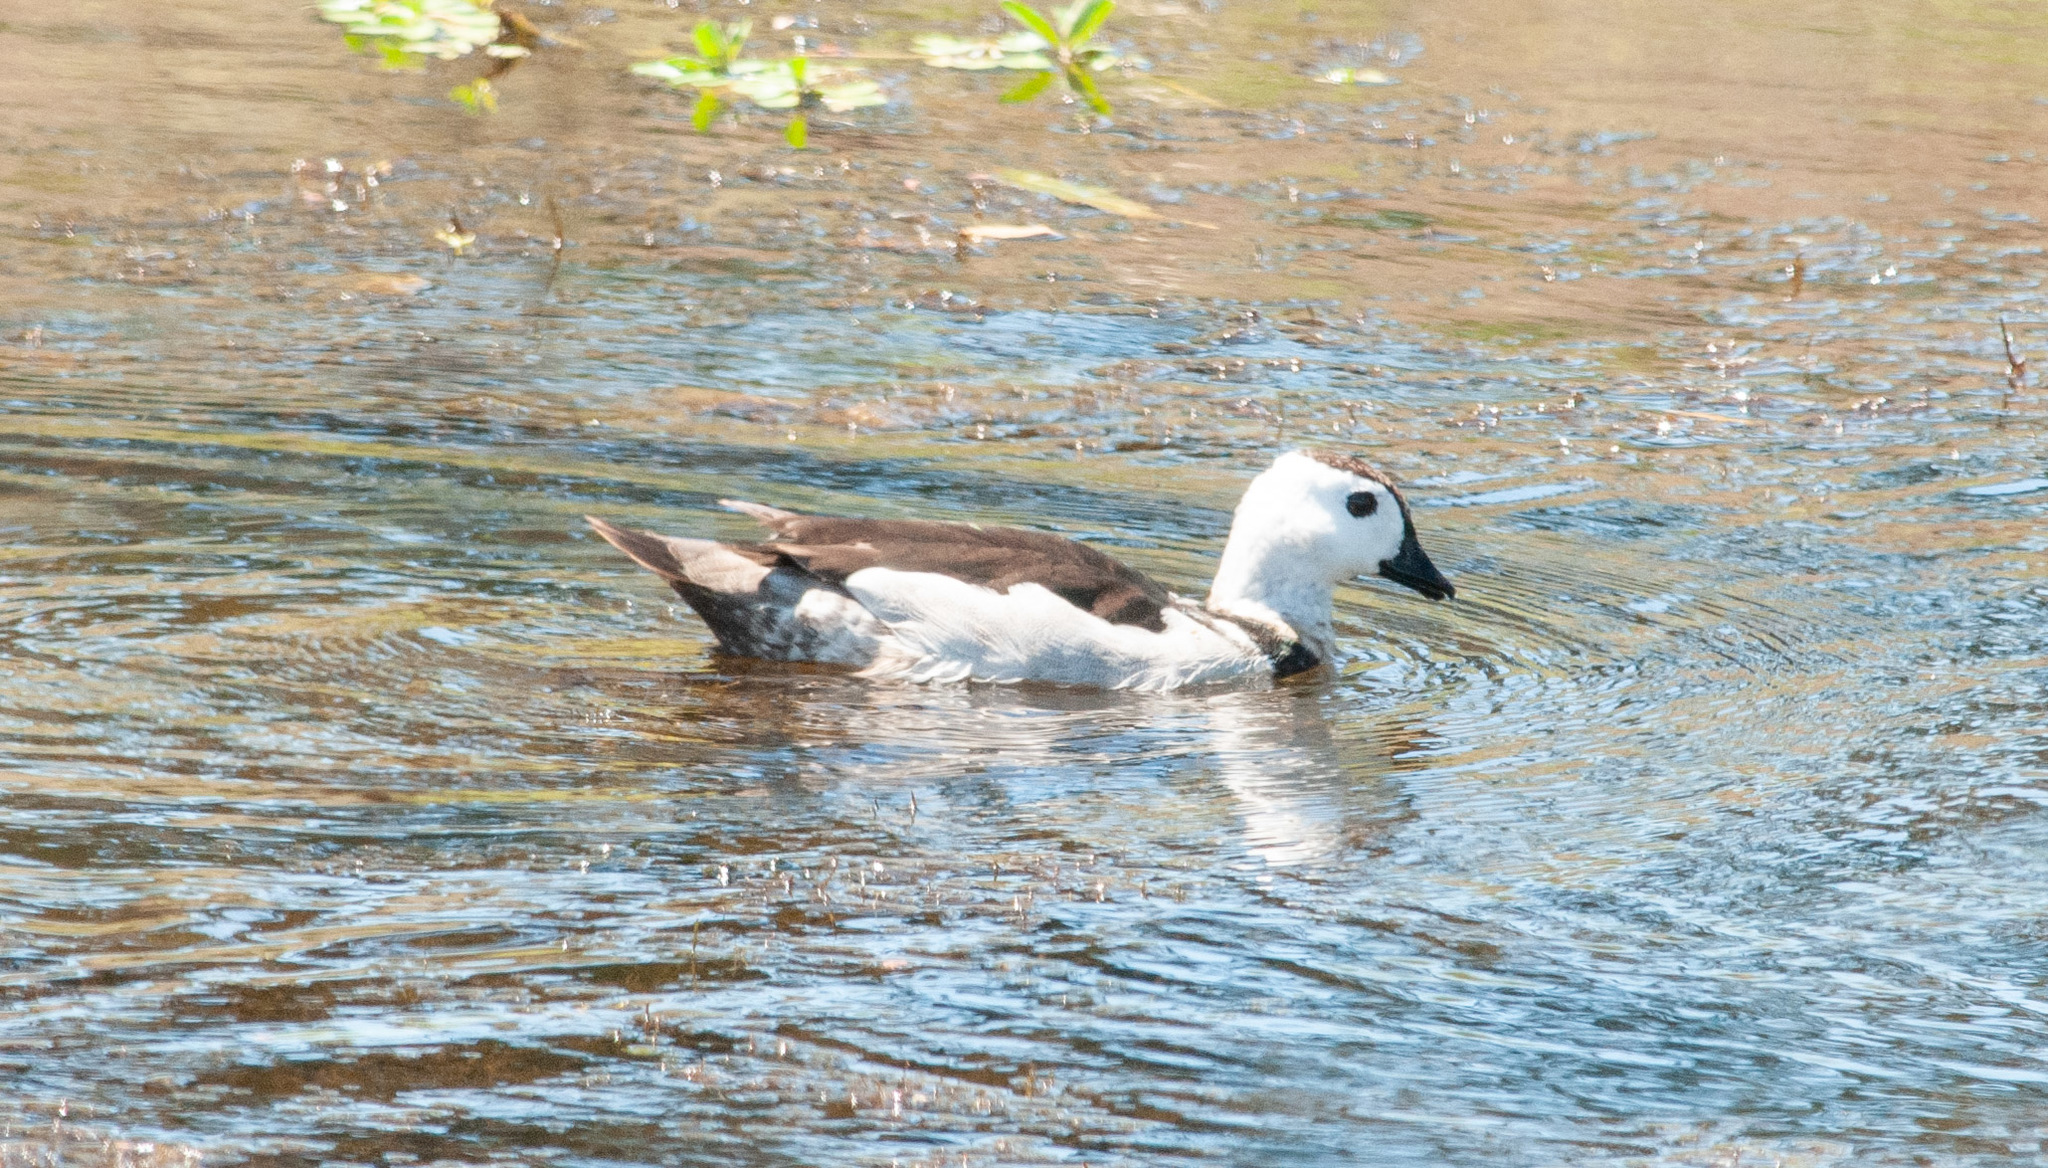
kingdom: Animalia
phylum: Chordata
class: Aves
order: Anseriformes
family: Anatidae
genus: Nettapus
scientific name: Nettapus coromandelianus
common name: Cotton pygmy-goose
